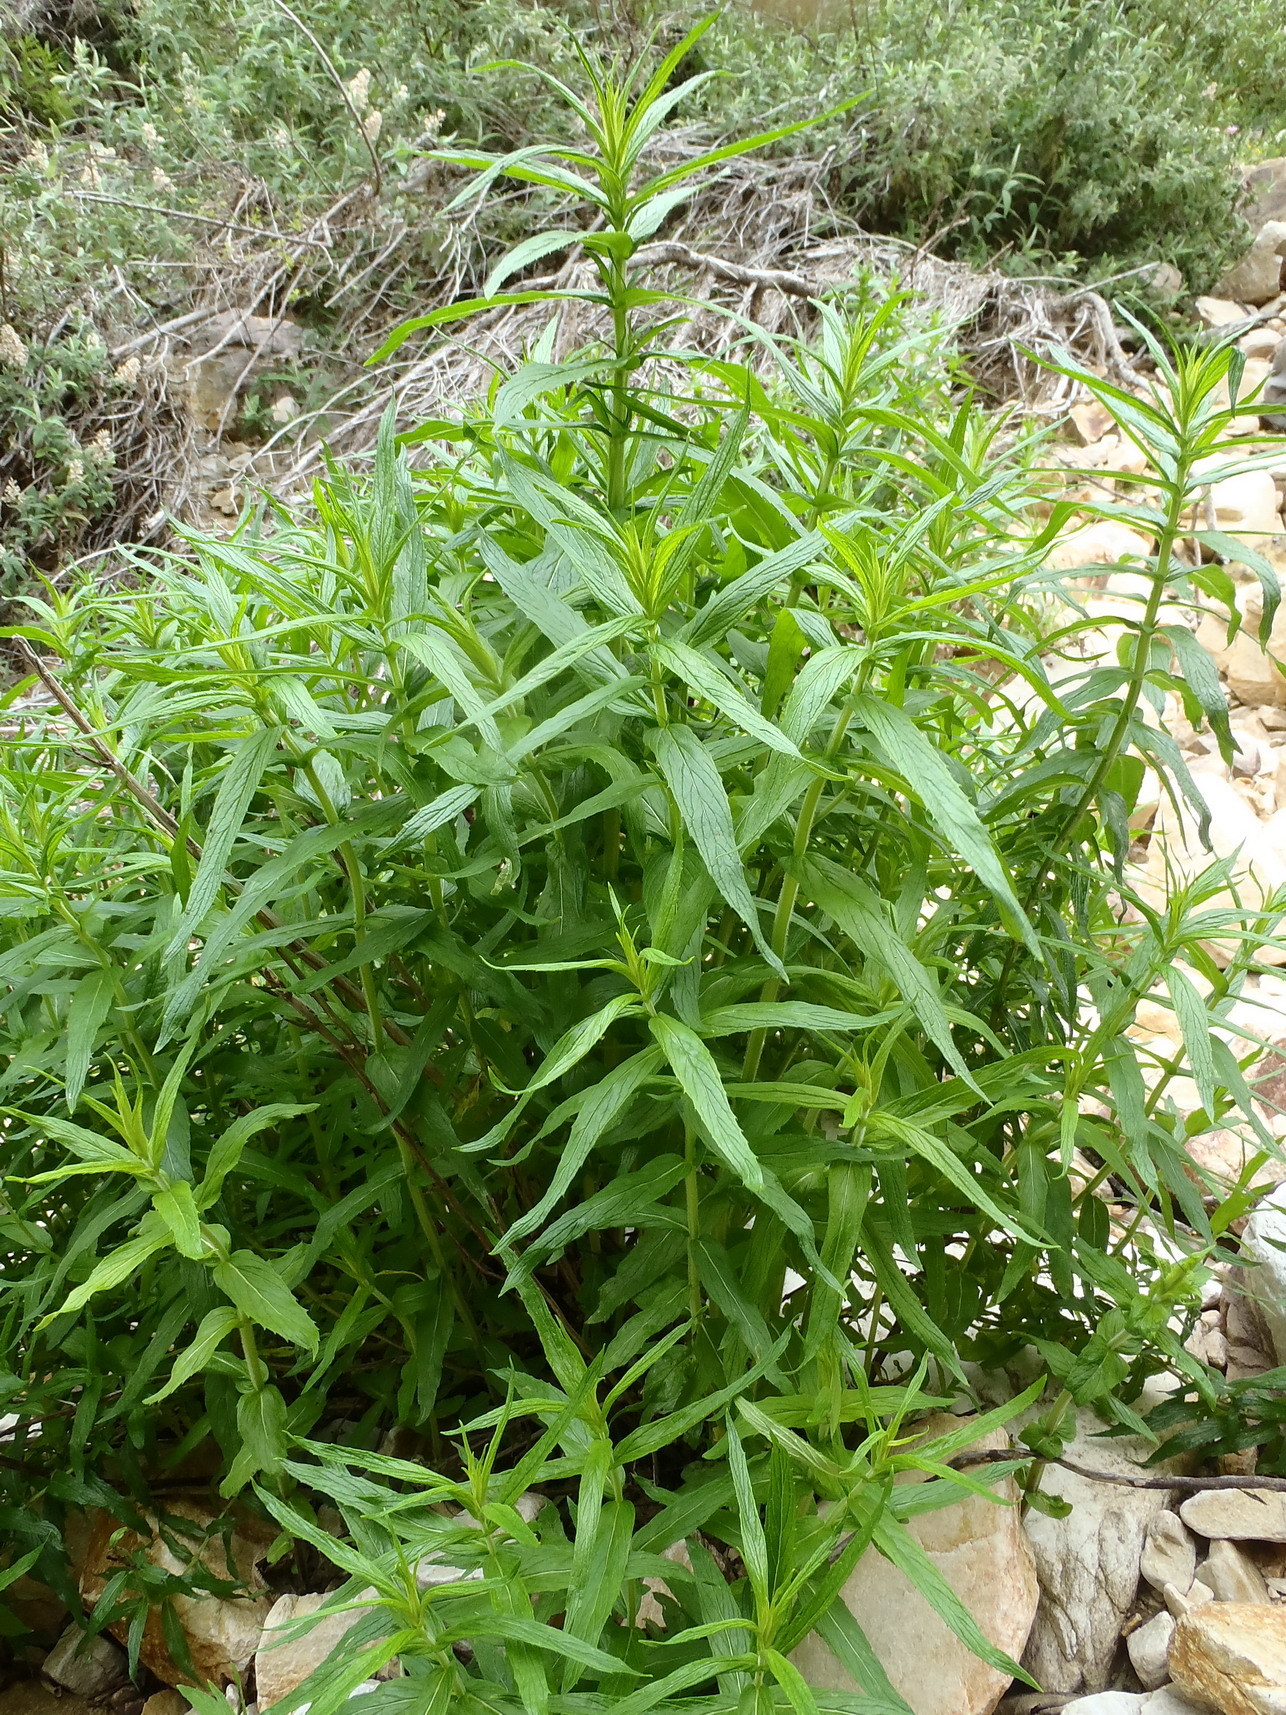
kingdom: Plantae
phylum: Tracheophyta
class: Magnoliopsida
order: Lamiales
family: Lamiaceae
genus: Mentha
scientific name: Mentha longifolia
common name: Horse mint
